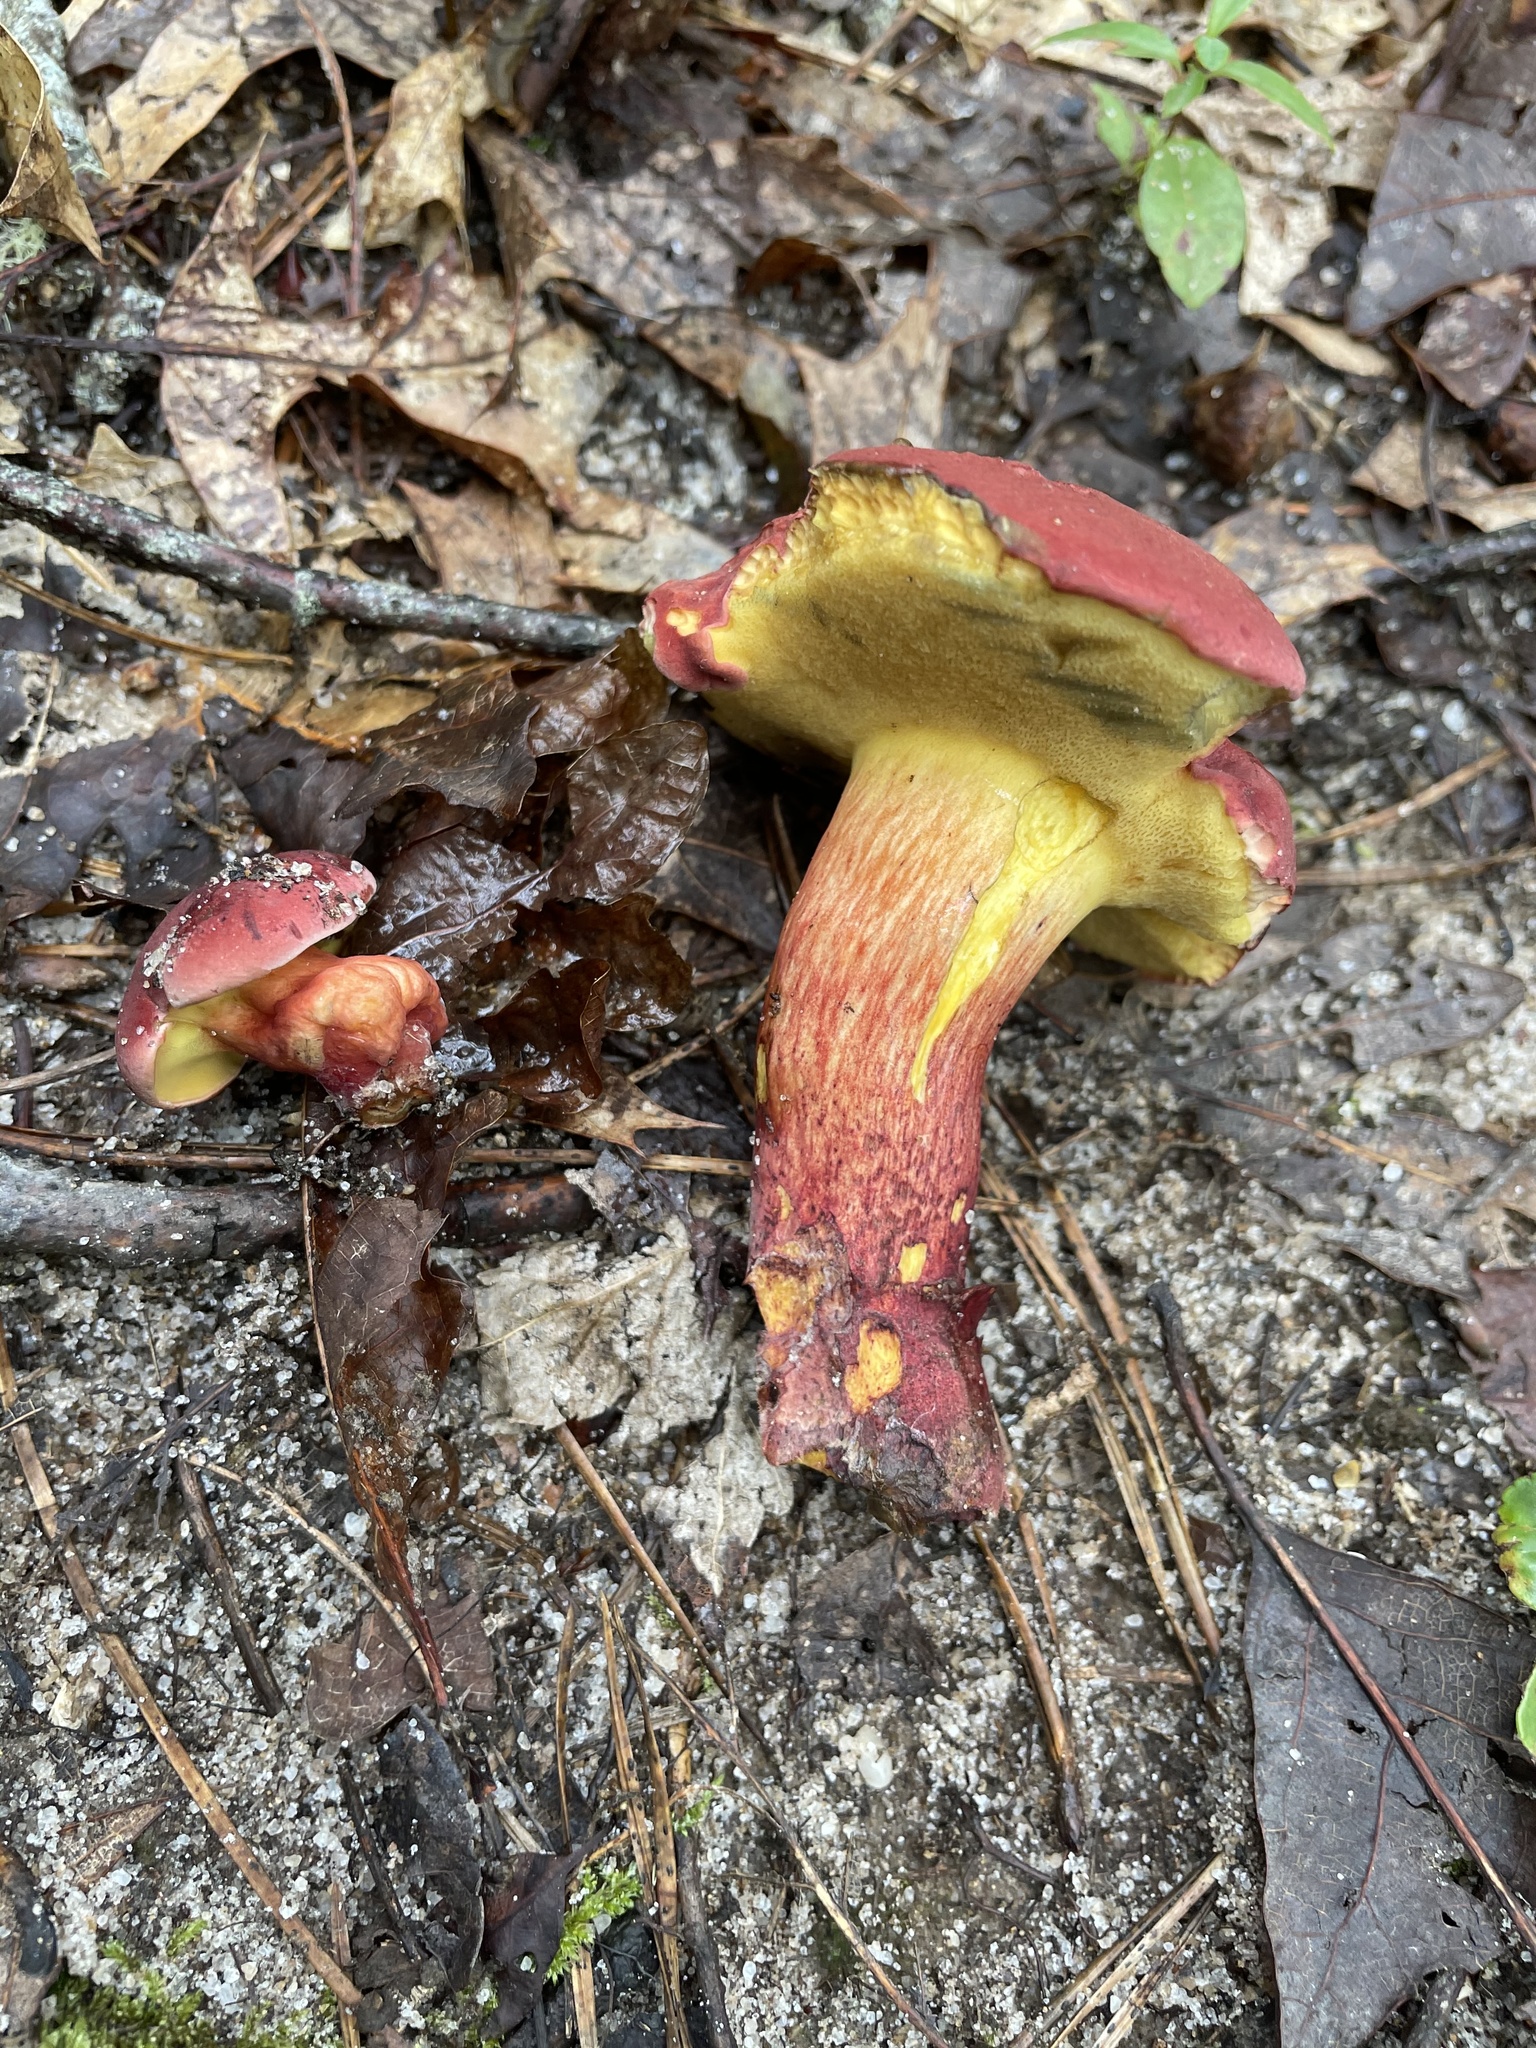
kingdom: Fungi
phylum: Basidiomycota
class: Agaricomycetes
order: Boletales
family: Boletaceae
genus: Baorangia
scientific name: Baorangia bicolor
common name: Two-colored bolete
